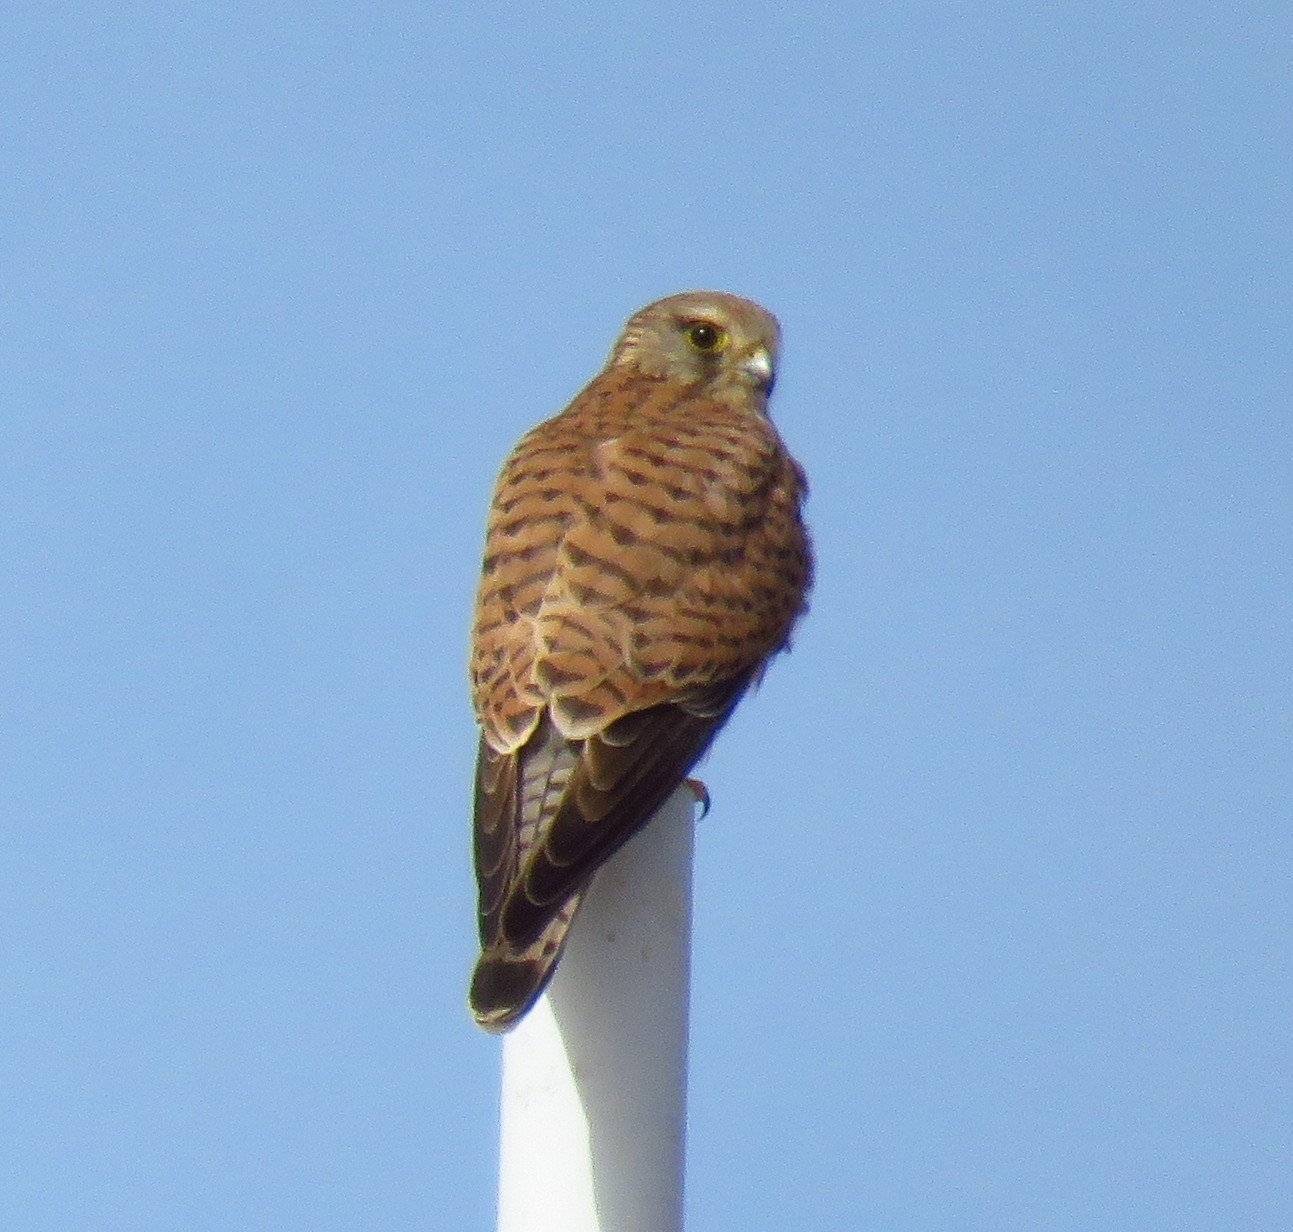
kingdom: Animalia
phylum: Chordata
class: Aves
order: Falconiformes
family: Falconidae
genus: Falco
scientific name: Falco tinnunculus
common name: Common kestrel
